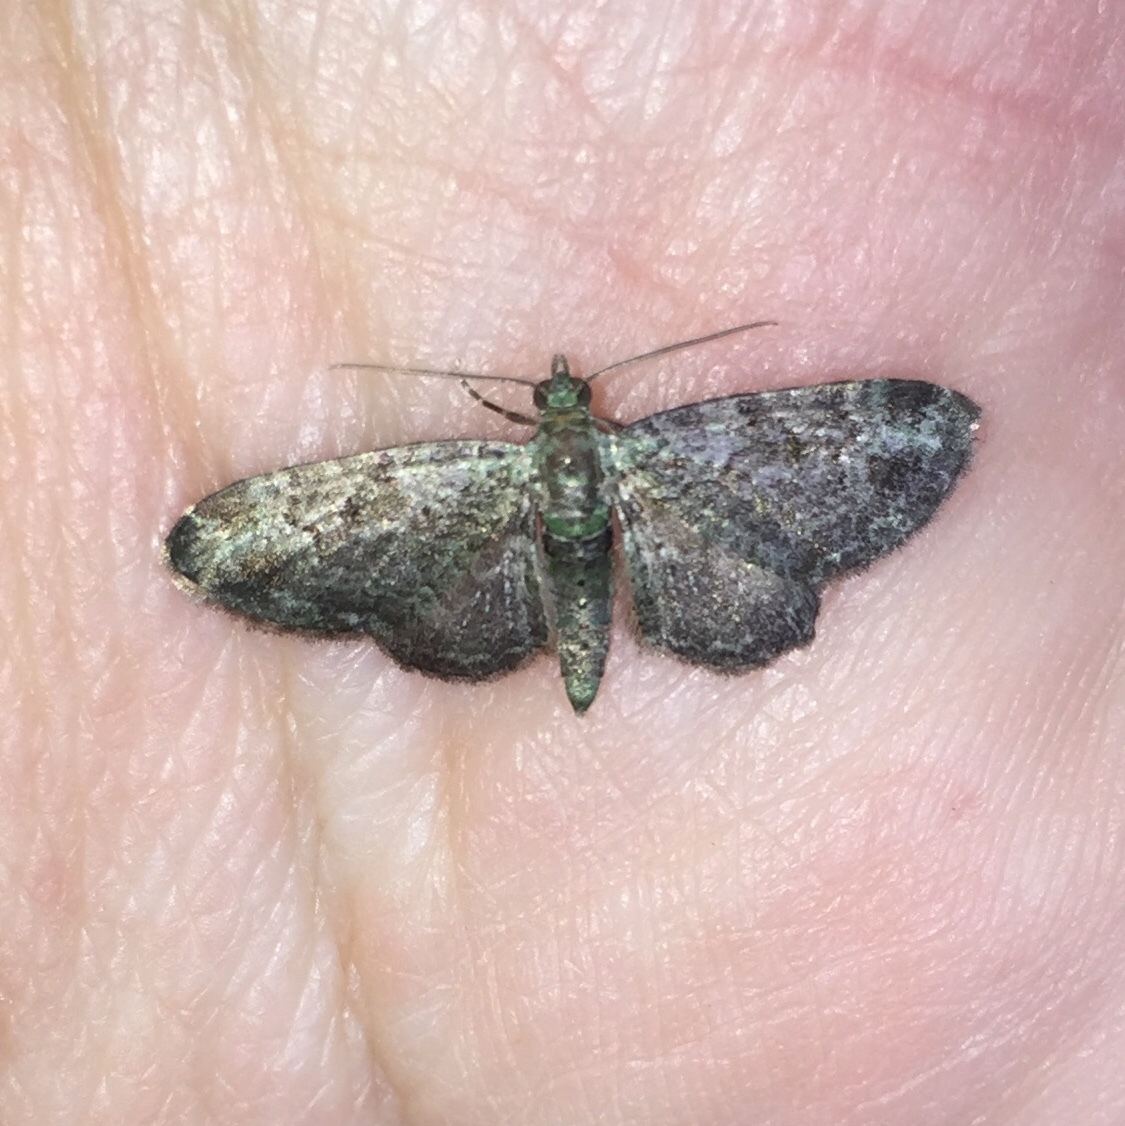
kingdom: Animalia
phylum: Arthropoda
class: Insecta
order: Lepidoptera
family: Geometridae
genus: Pasiphila
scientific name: Pasiphila rectangulata
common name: Green pug
